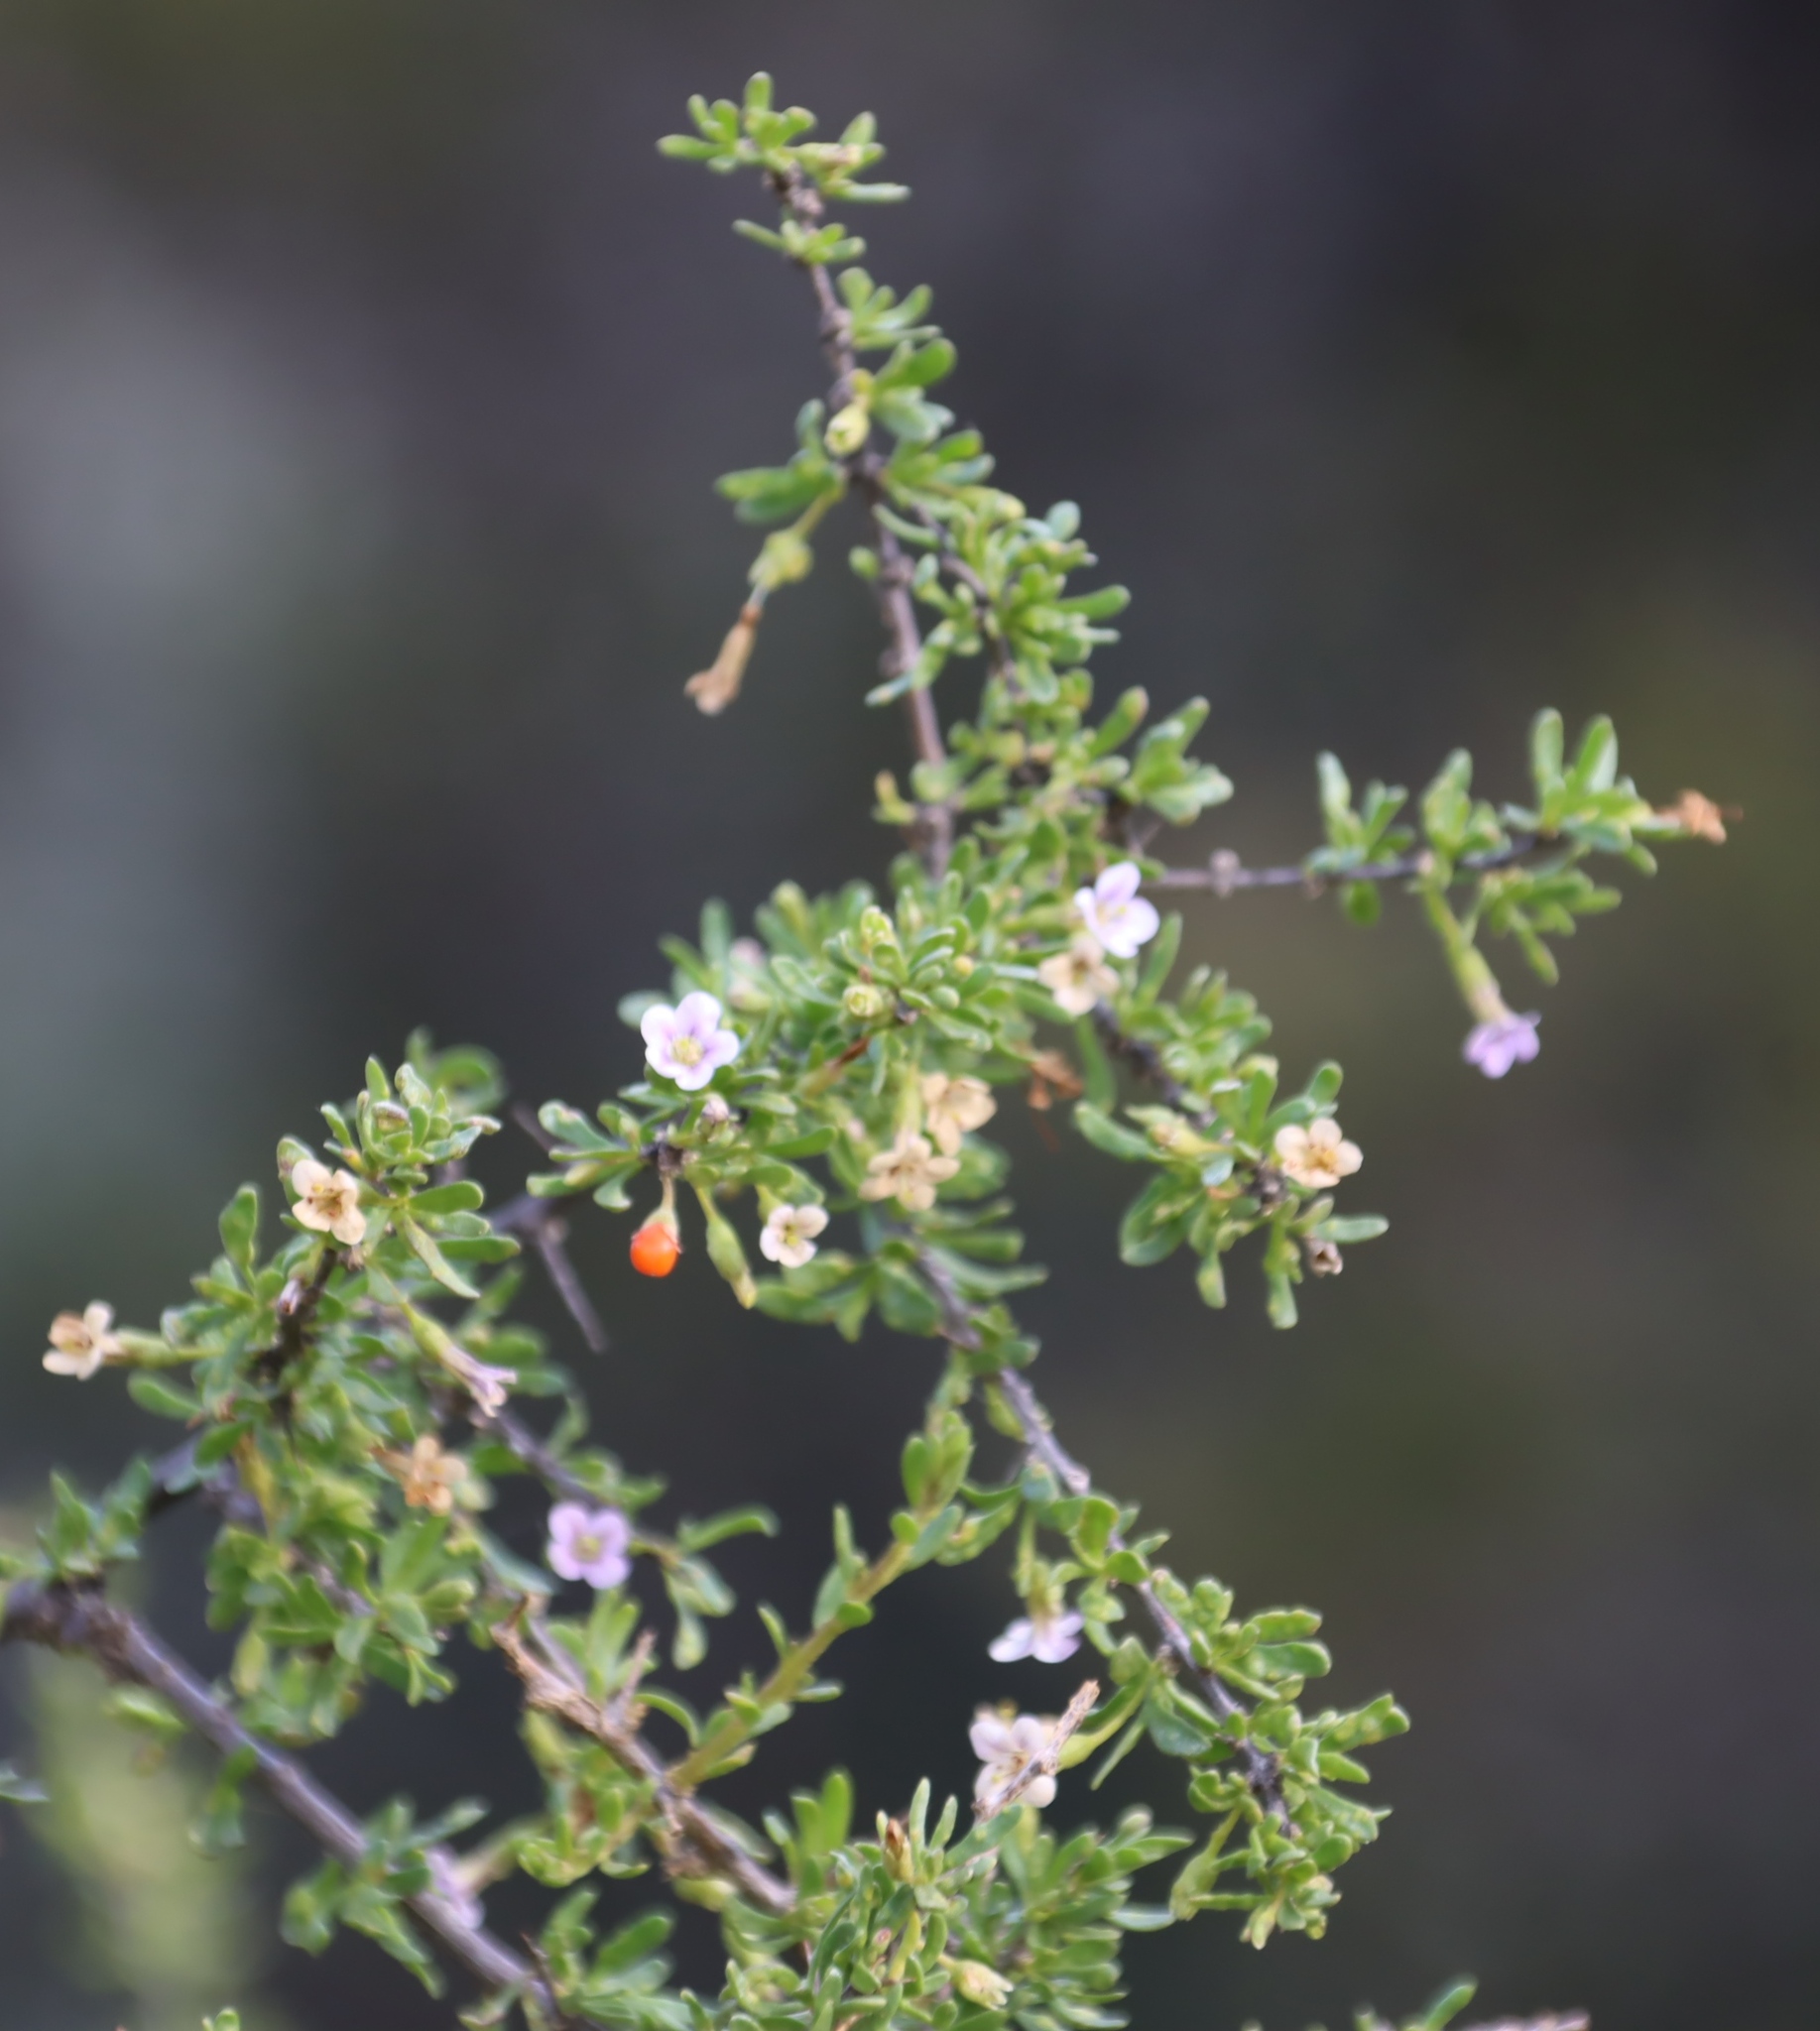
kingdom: Plantae
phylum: Tracheophyta
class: Magnoliopsida
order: Solanales
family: Solanaceae
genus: Lycium
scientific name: Lycium horridum
